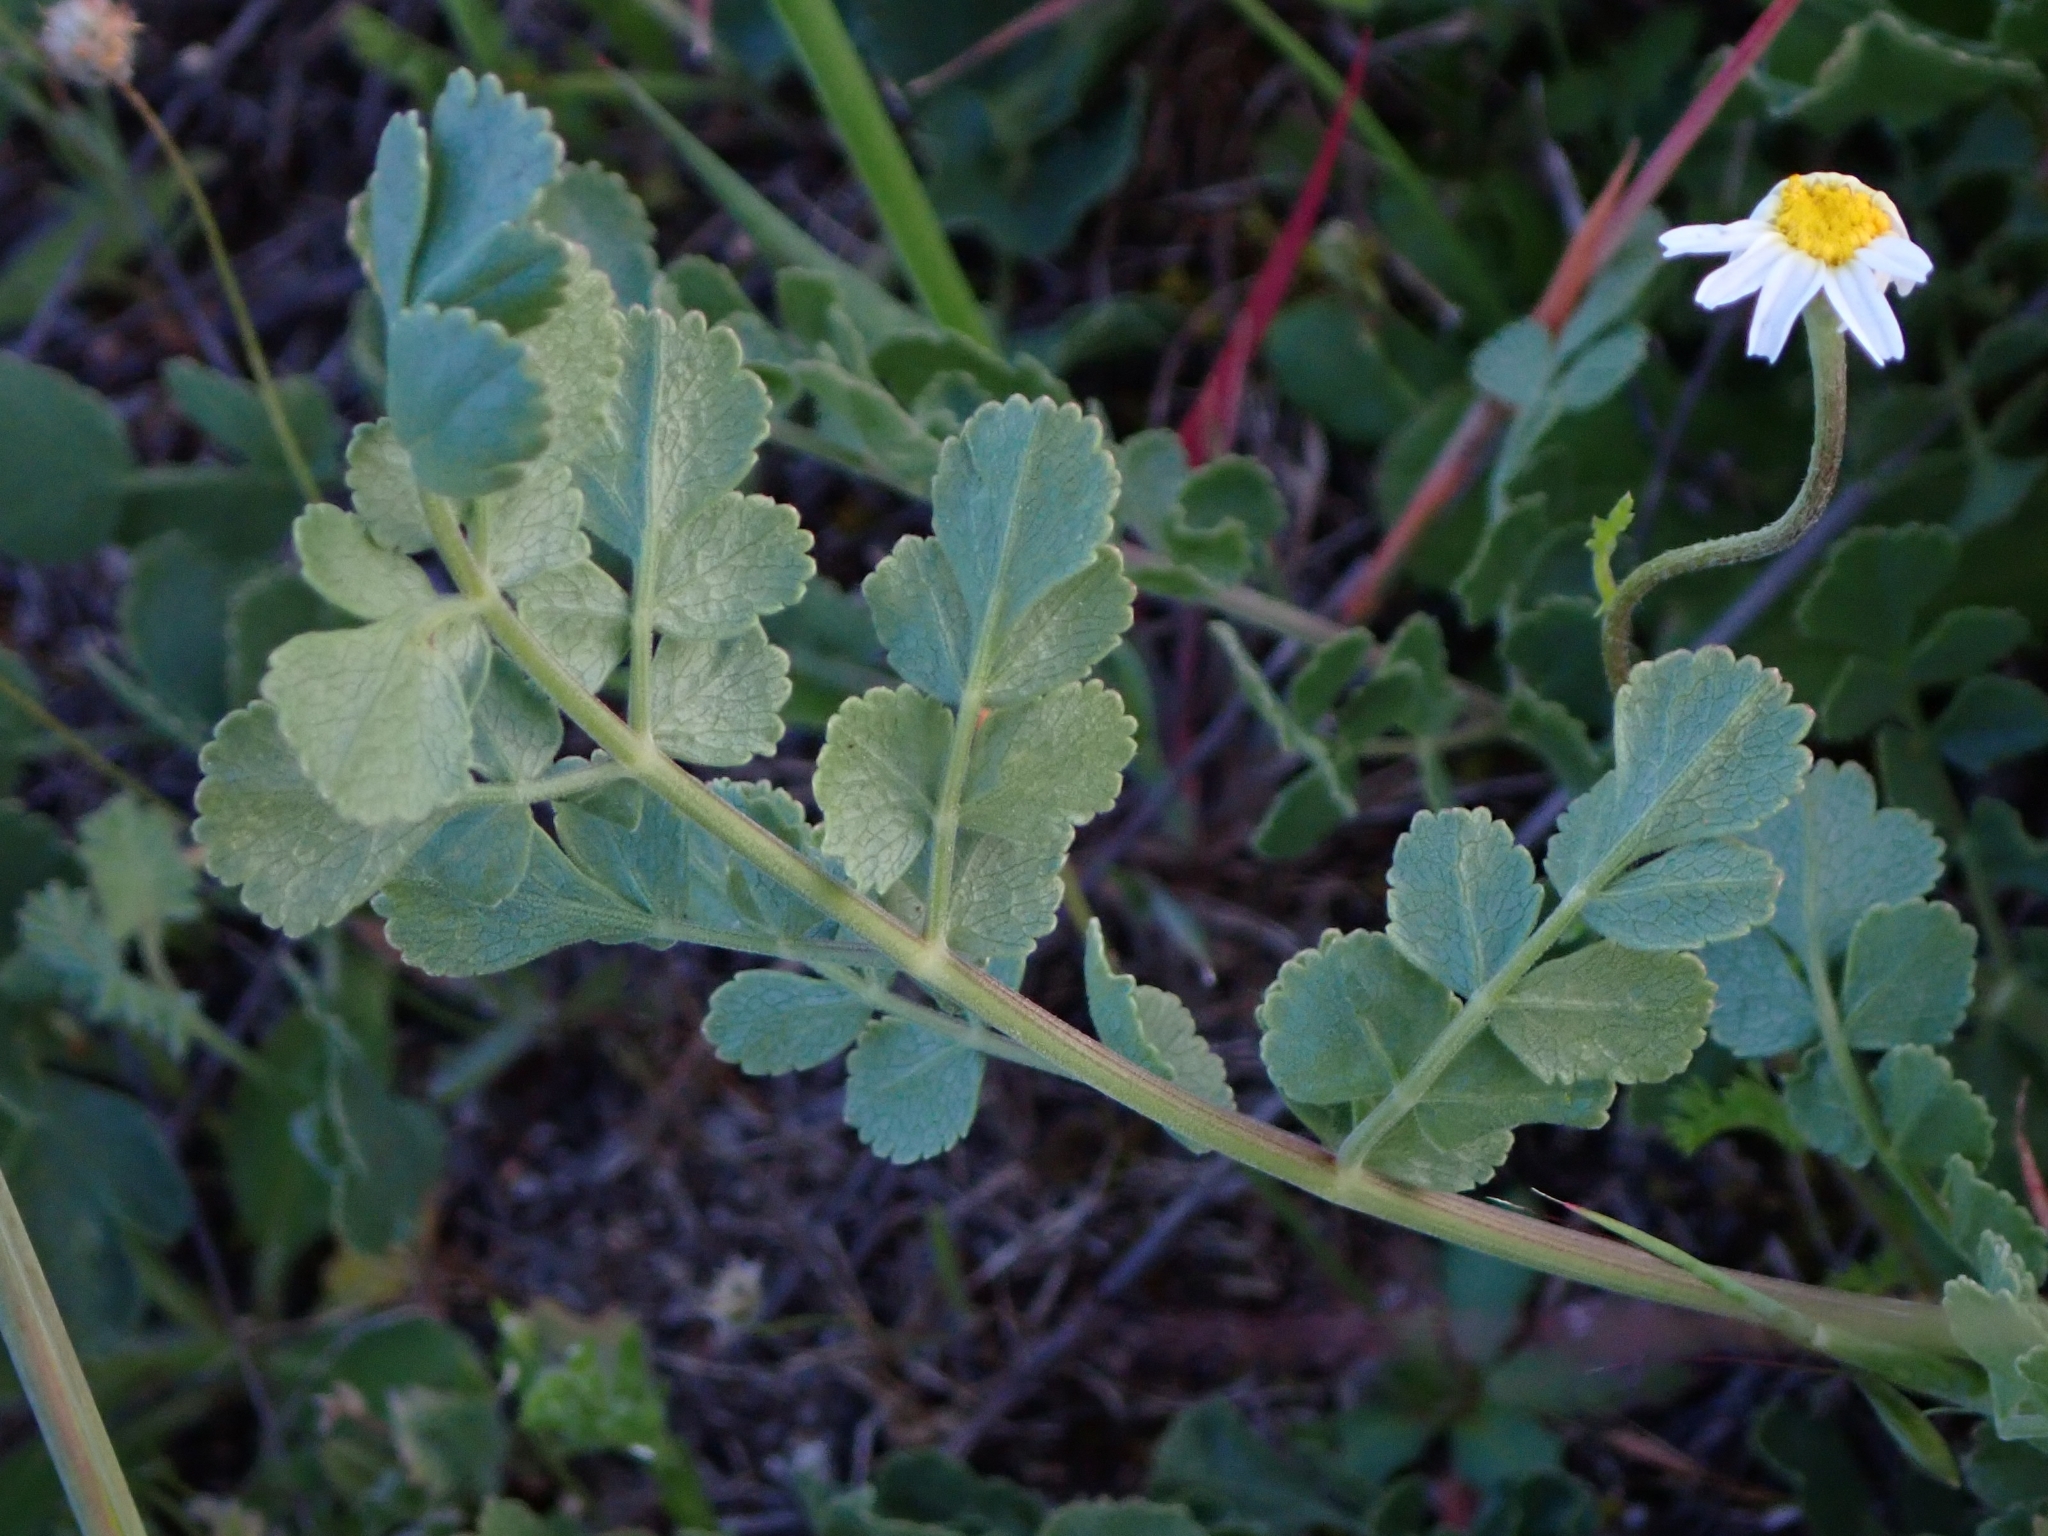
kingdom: Plantae
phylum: Tracheophyta
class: Magnoliopsida
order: Apiales
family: Apiaceae
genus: Pimpinella
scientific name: Pimpinella villosa
